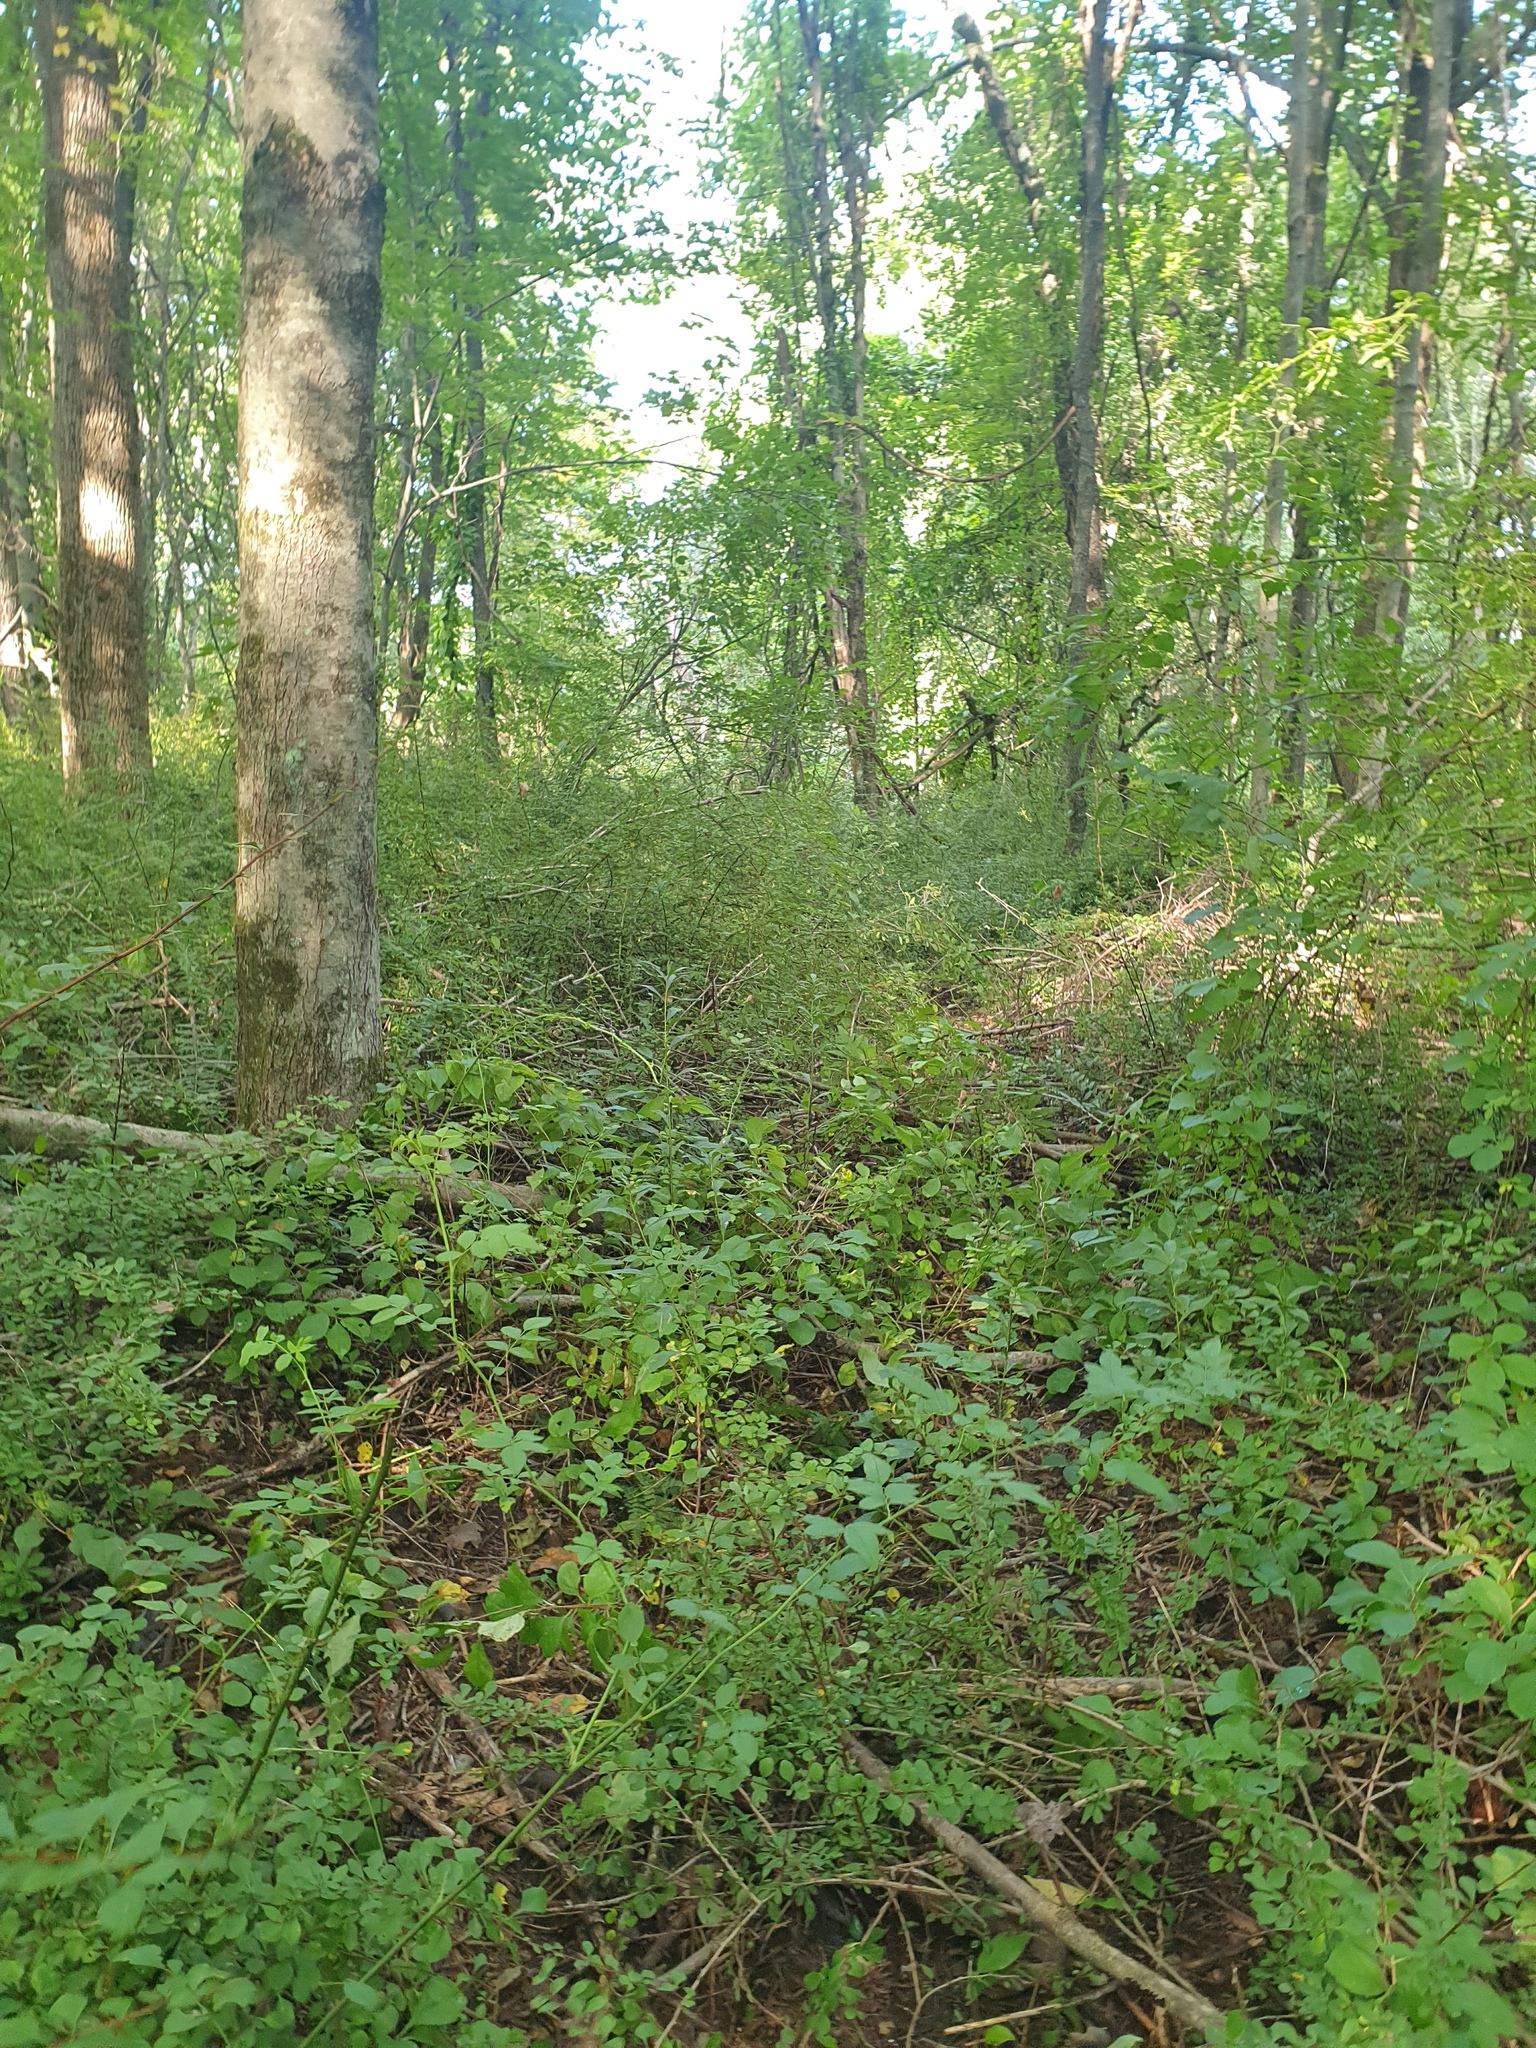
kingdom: Plantae
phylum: Tracheophyta
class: Magnoliopsida
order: Ranunculales
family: Berberidaceae
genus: Berberis
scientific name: Berberis thunbergii
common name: Japanese barberry
